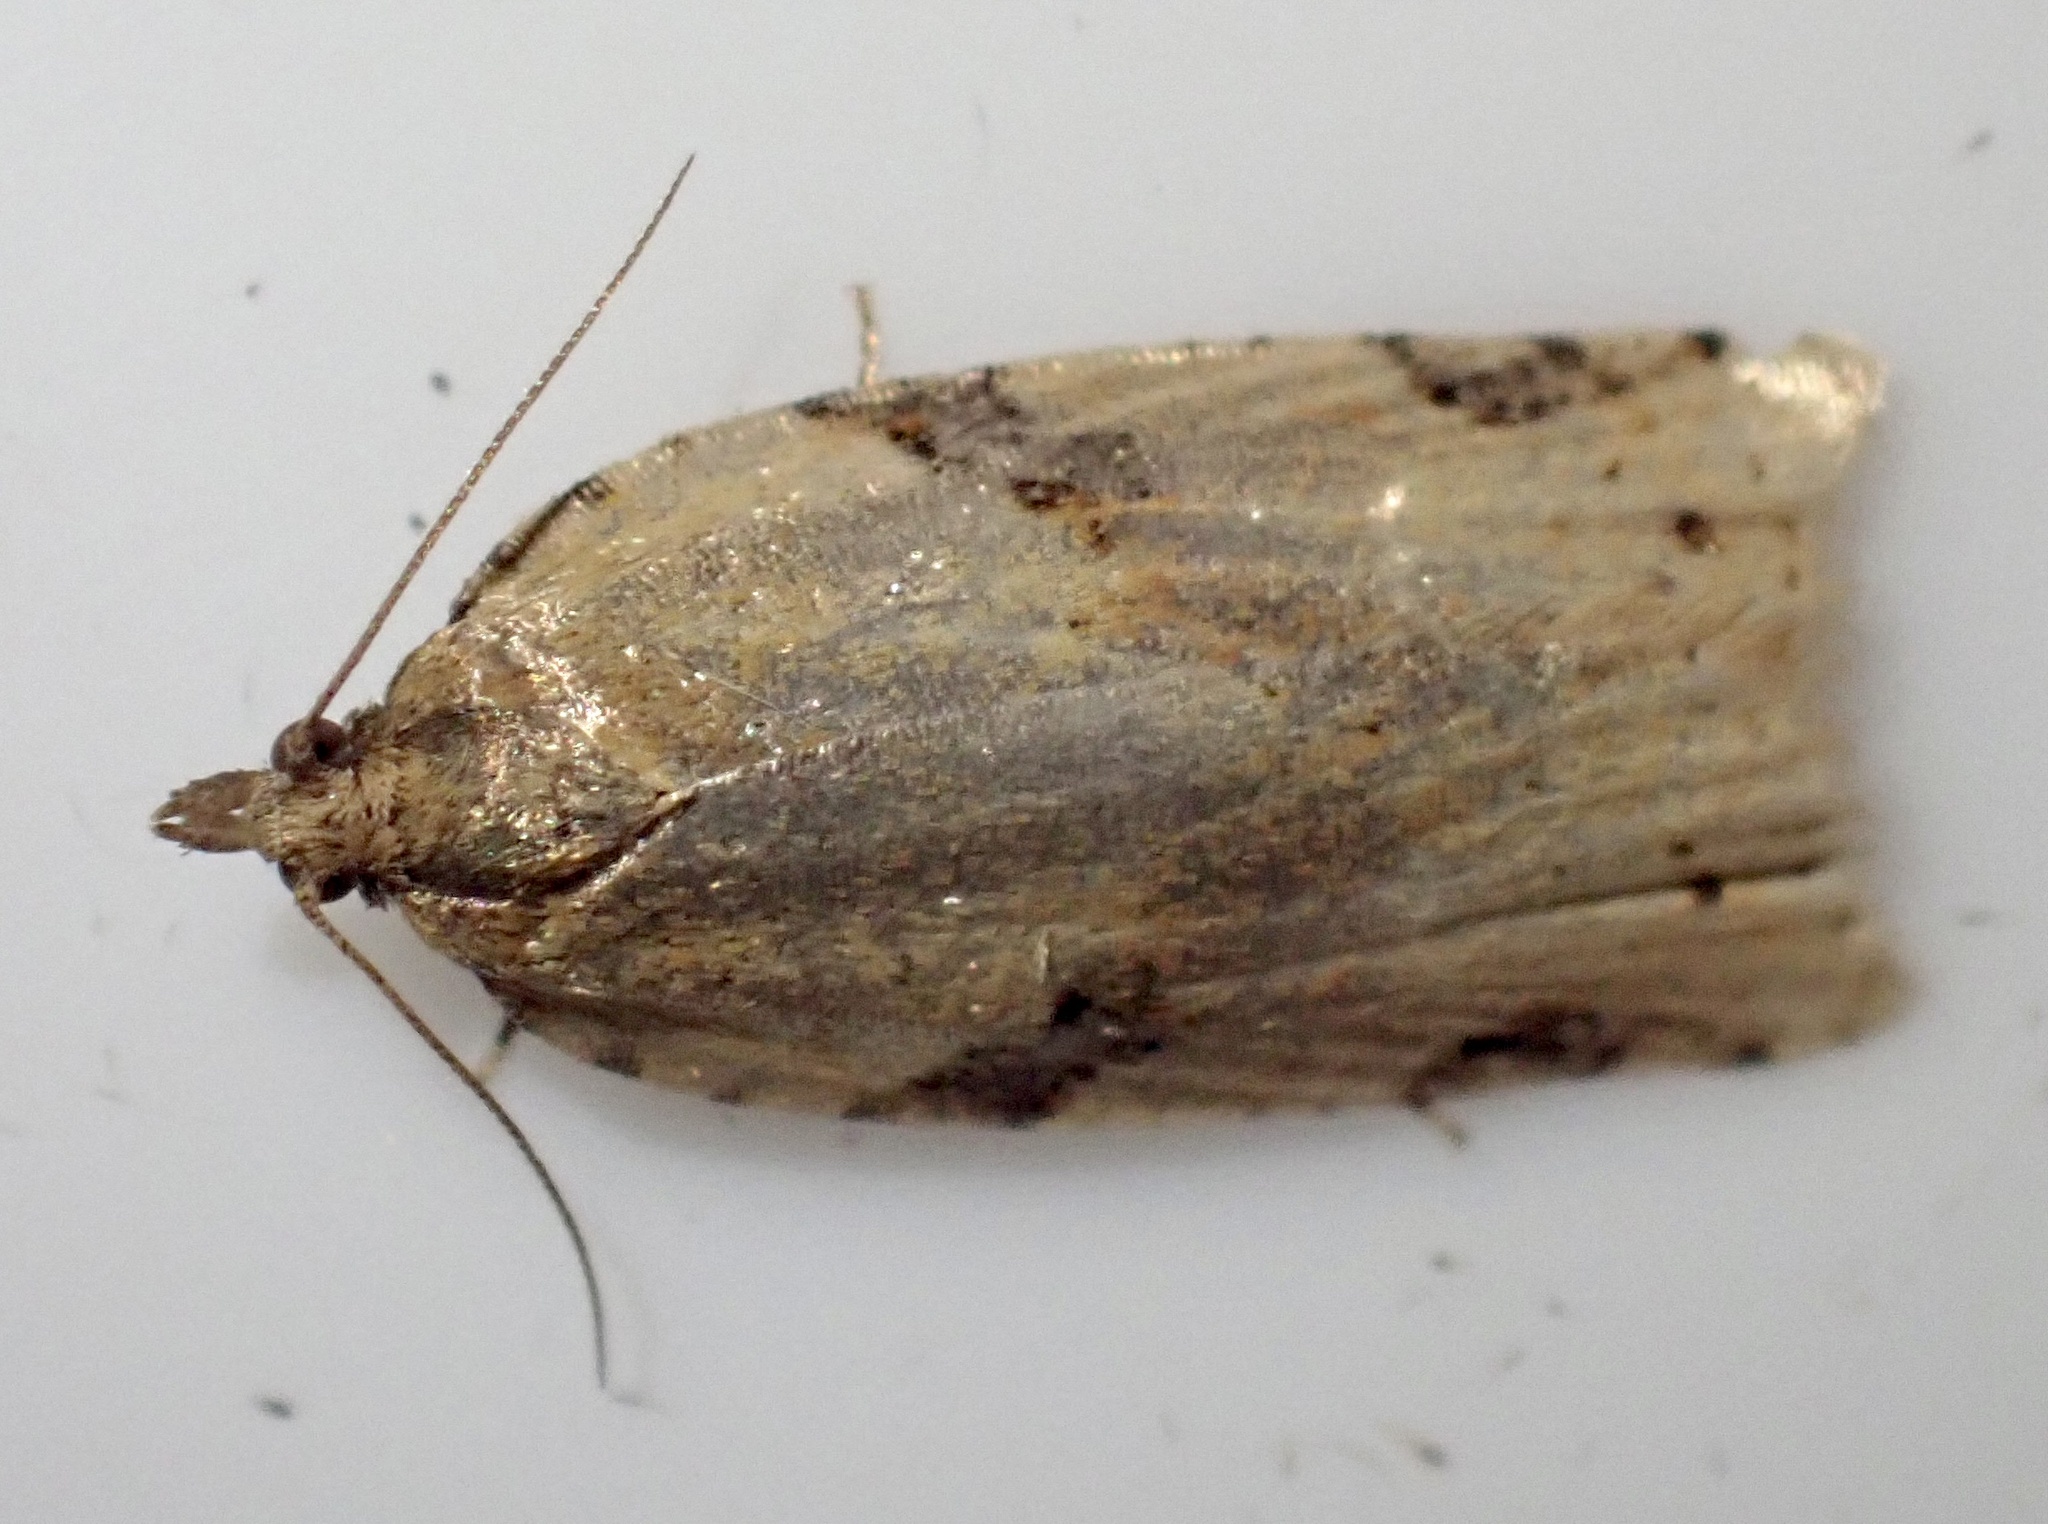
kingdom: Animalia
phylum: Arthropoda
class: Insecta
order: Lepidoptera
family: Tortricidae
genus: Clepsis
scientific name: Clepsis spectrana
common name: Cyclamen tortrix
